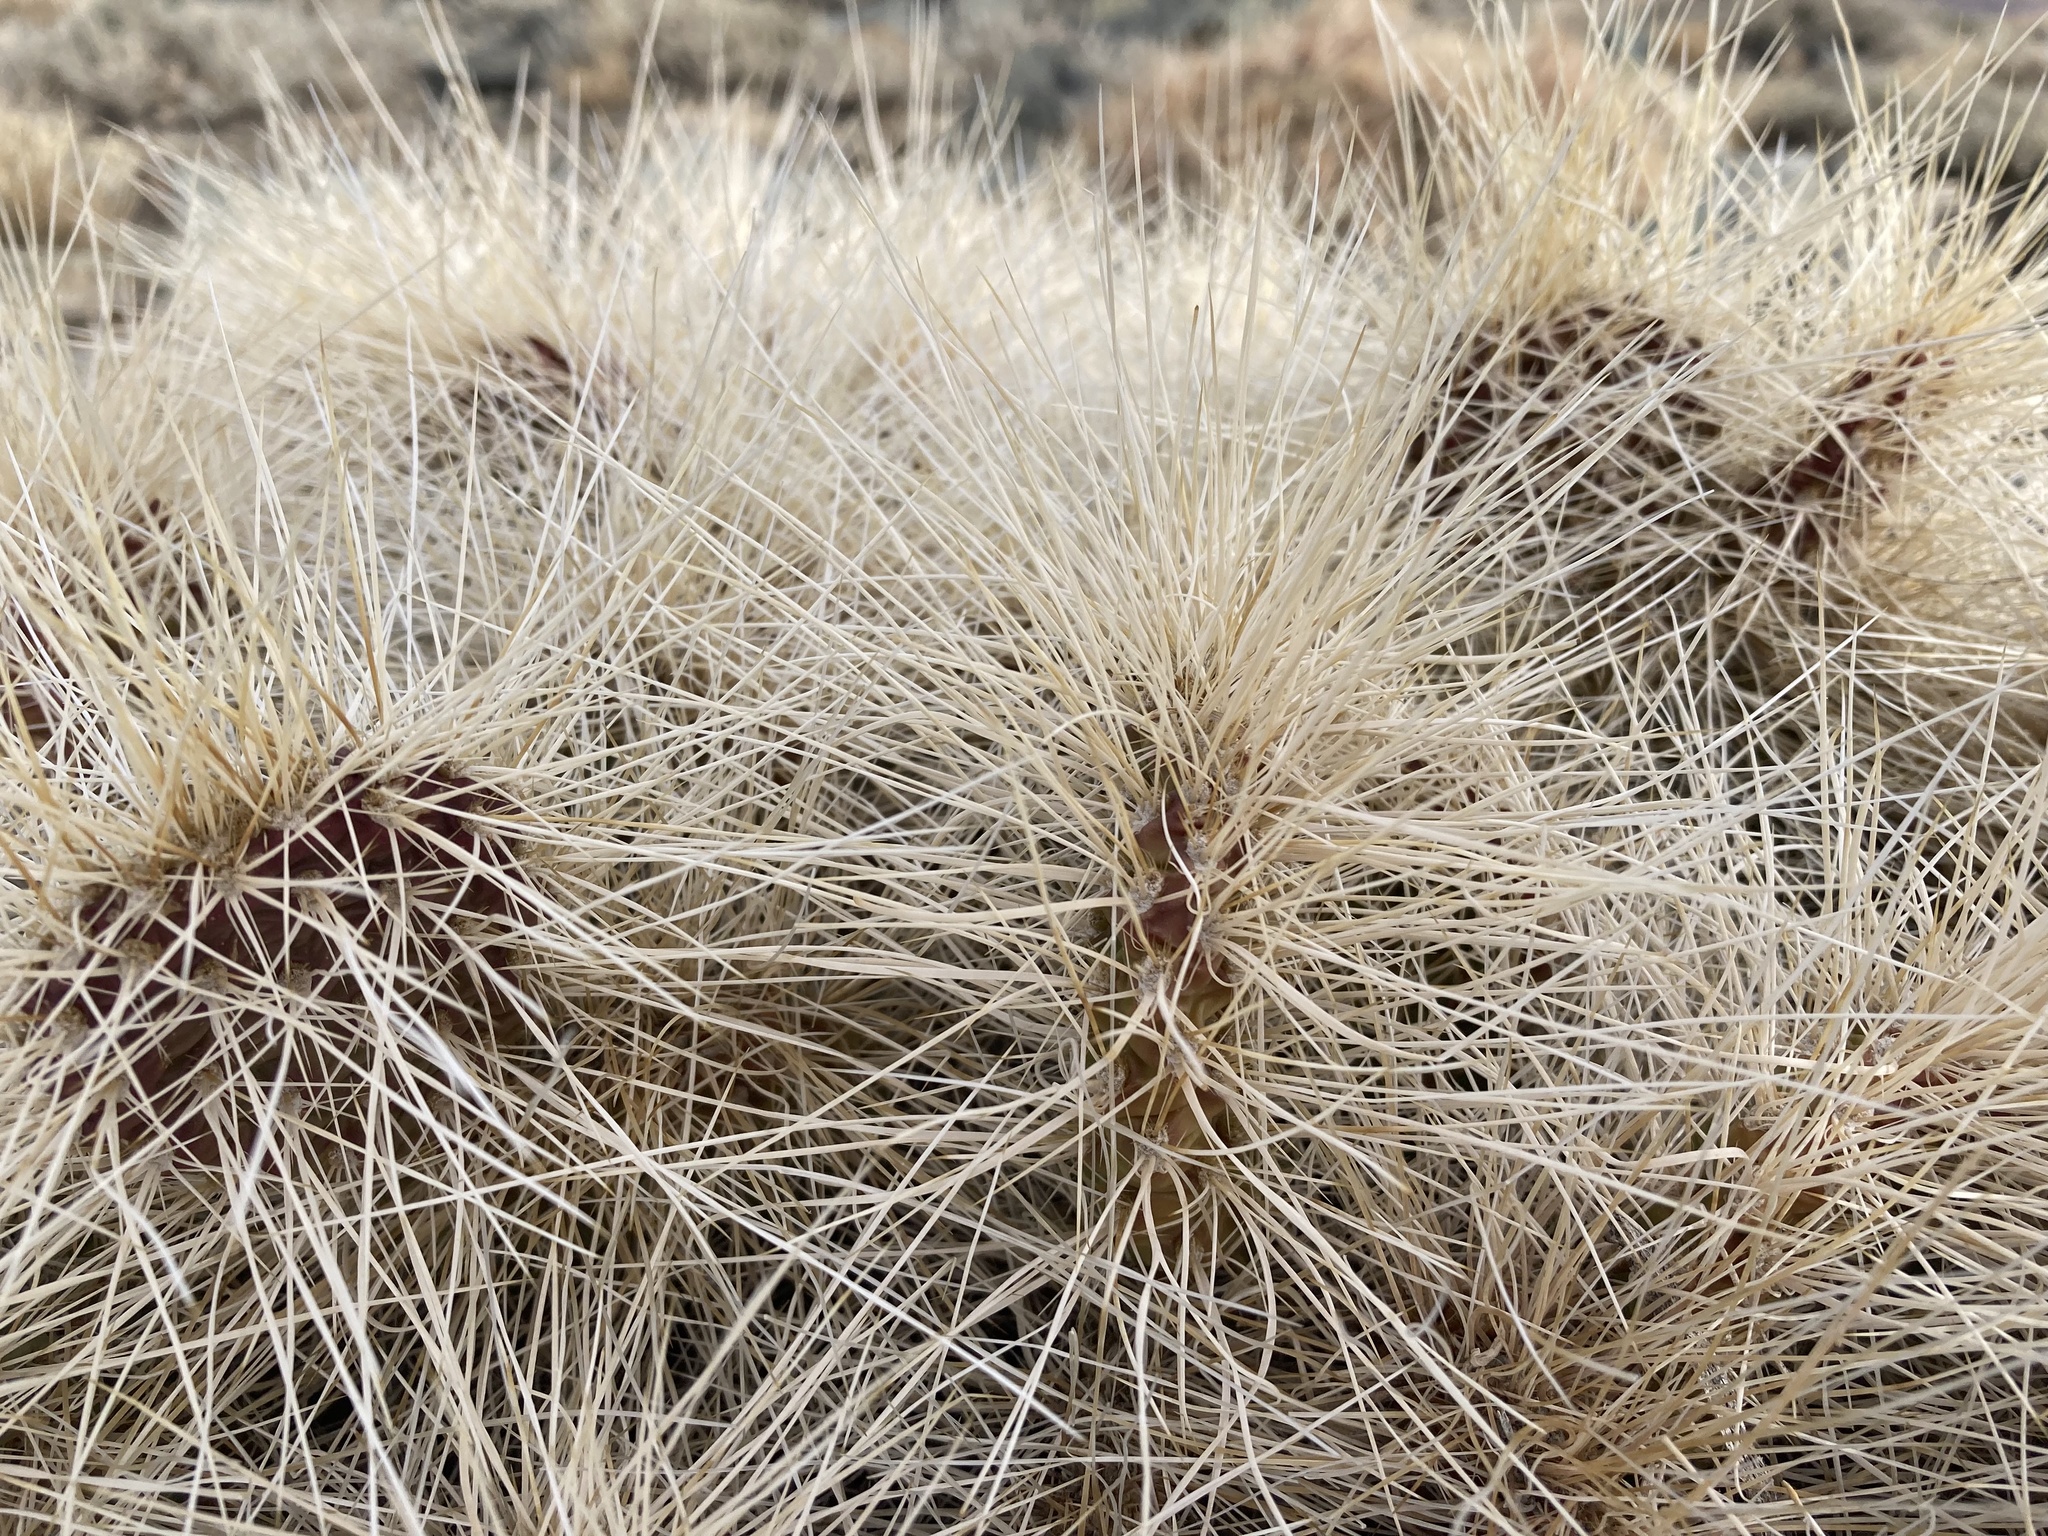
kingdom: Plantae
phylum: Tracheophyta
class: Magnoliopsida
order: Caryophyllales
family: Cactaceae
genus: Opuntia
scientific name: Opuntia polyacantha
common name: Plains prickly-pear
